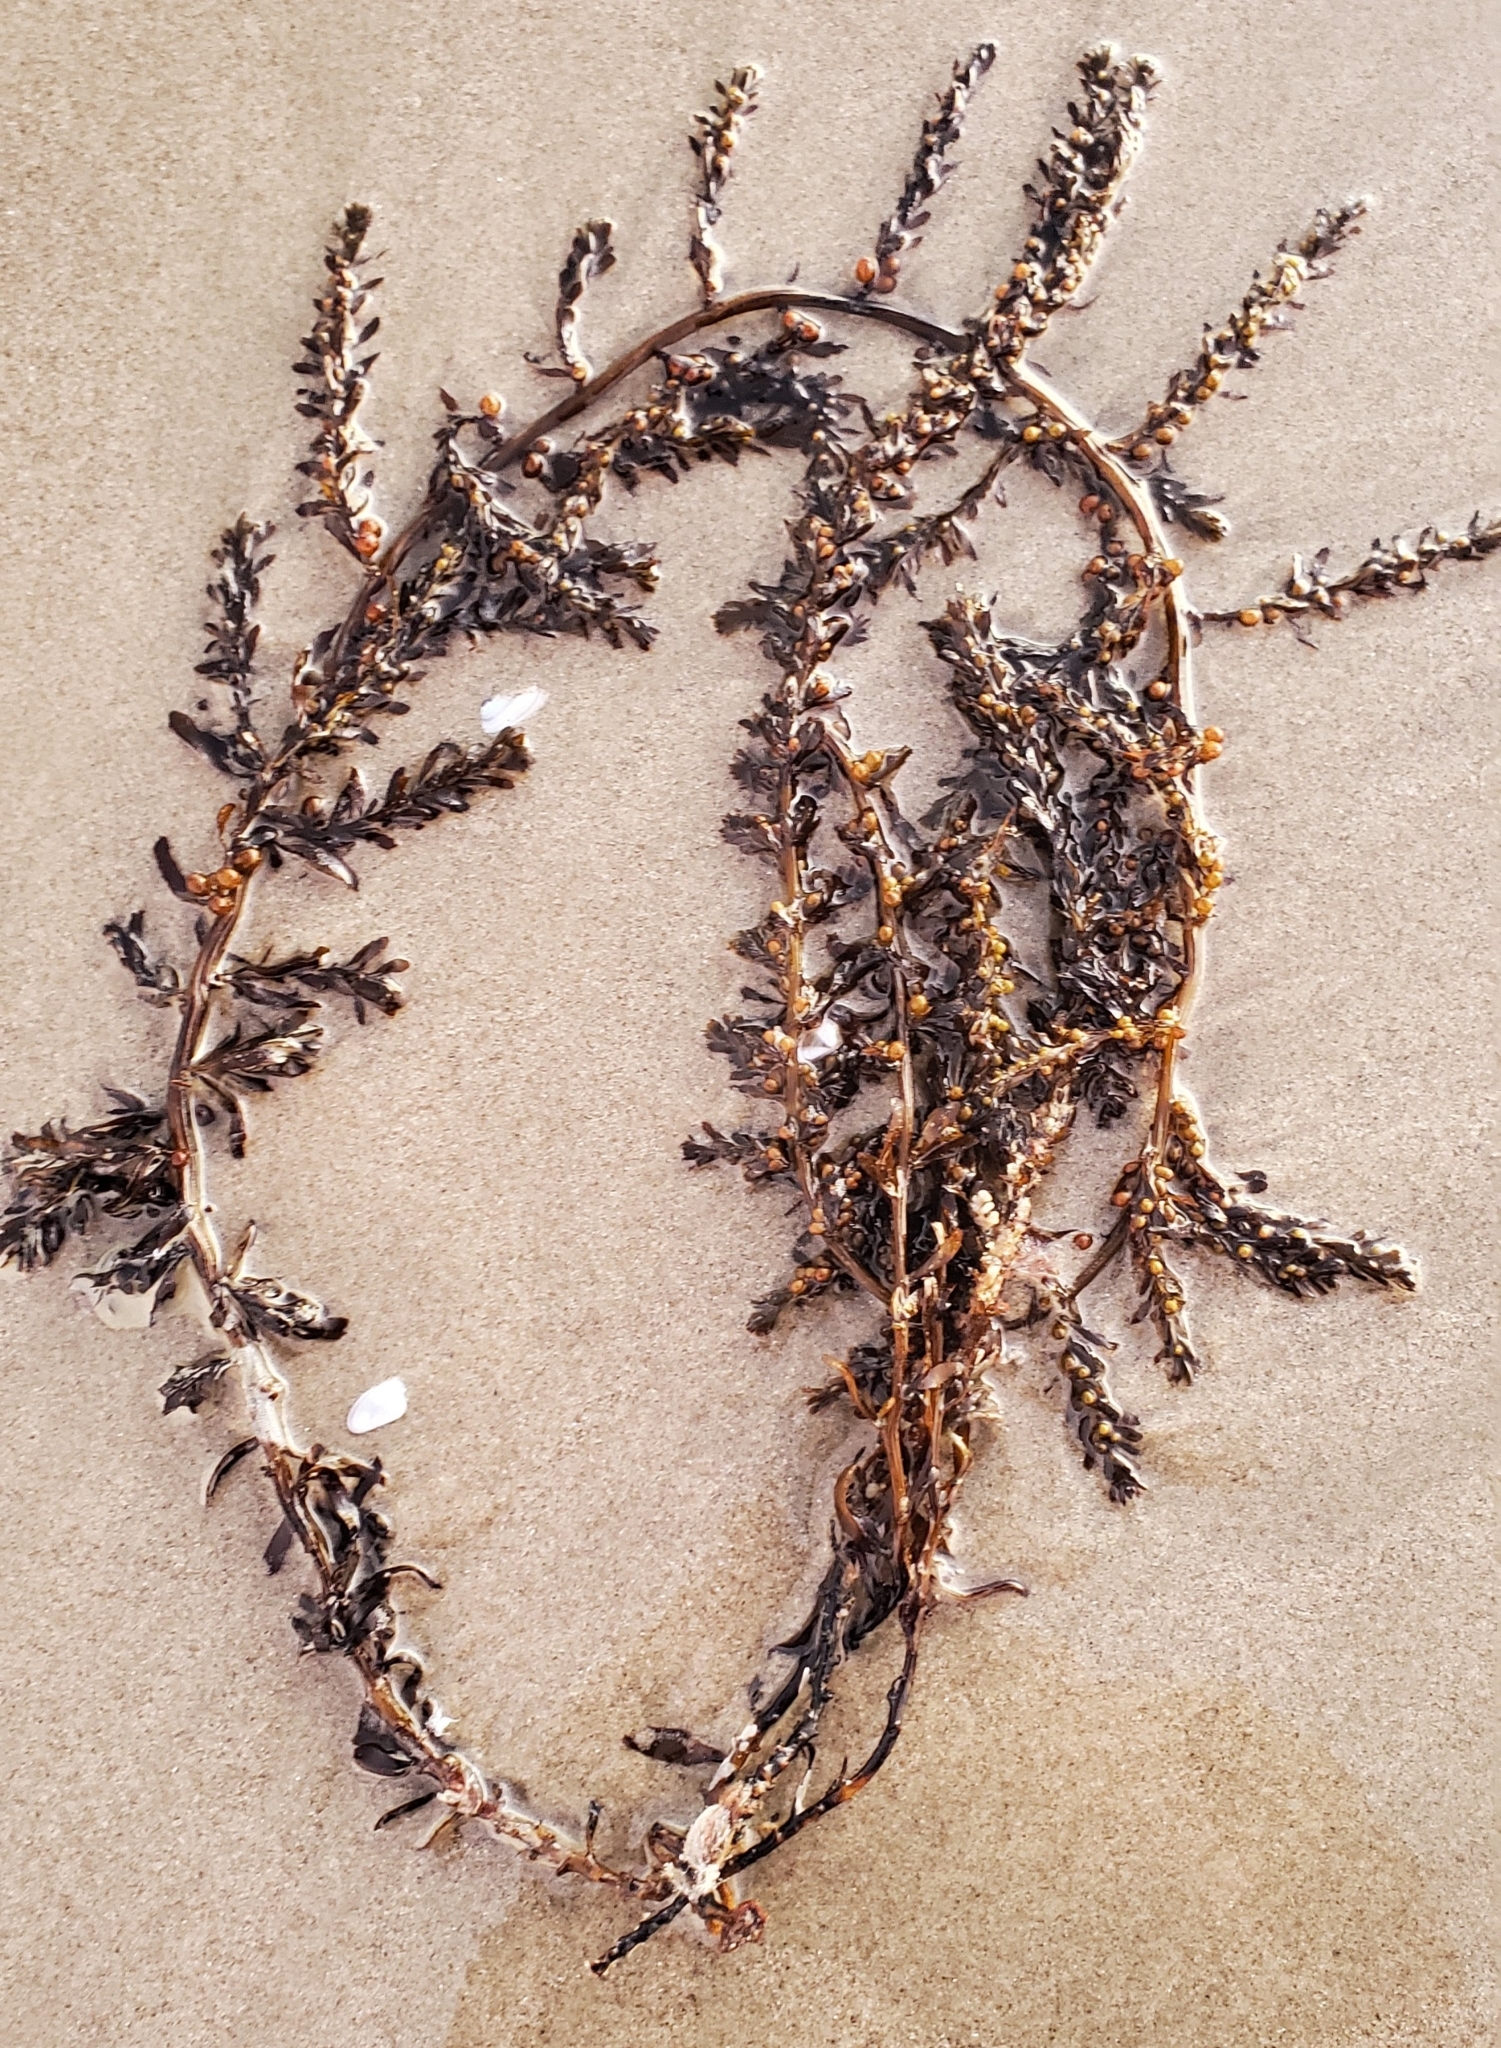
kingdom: Chromista
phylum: Ochrophyta
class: Phaeophyceae
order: Fucales
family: Sargassaceae
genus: Sargassum
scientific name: Sargassum muticum
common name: Japweed
